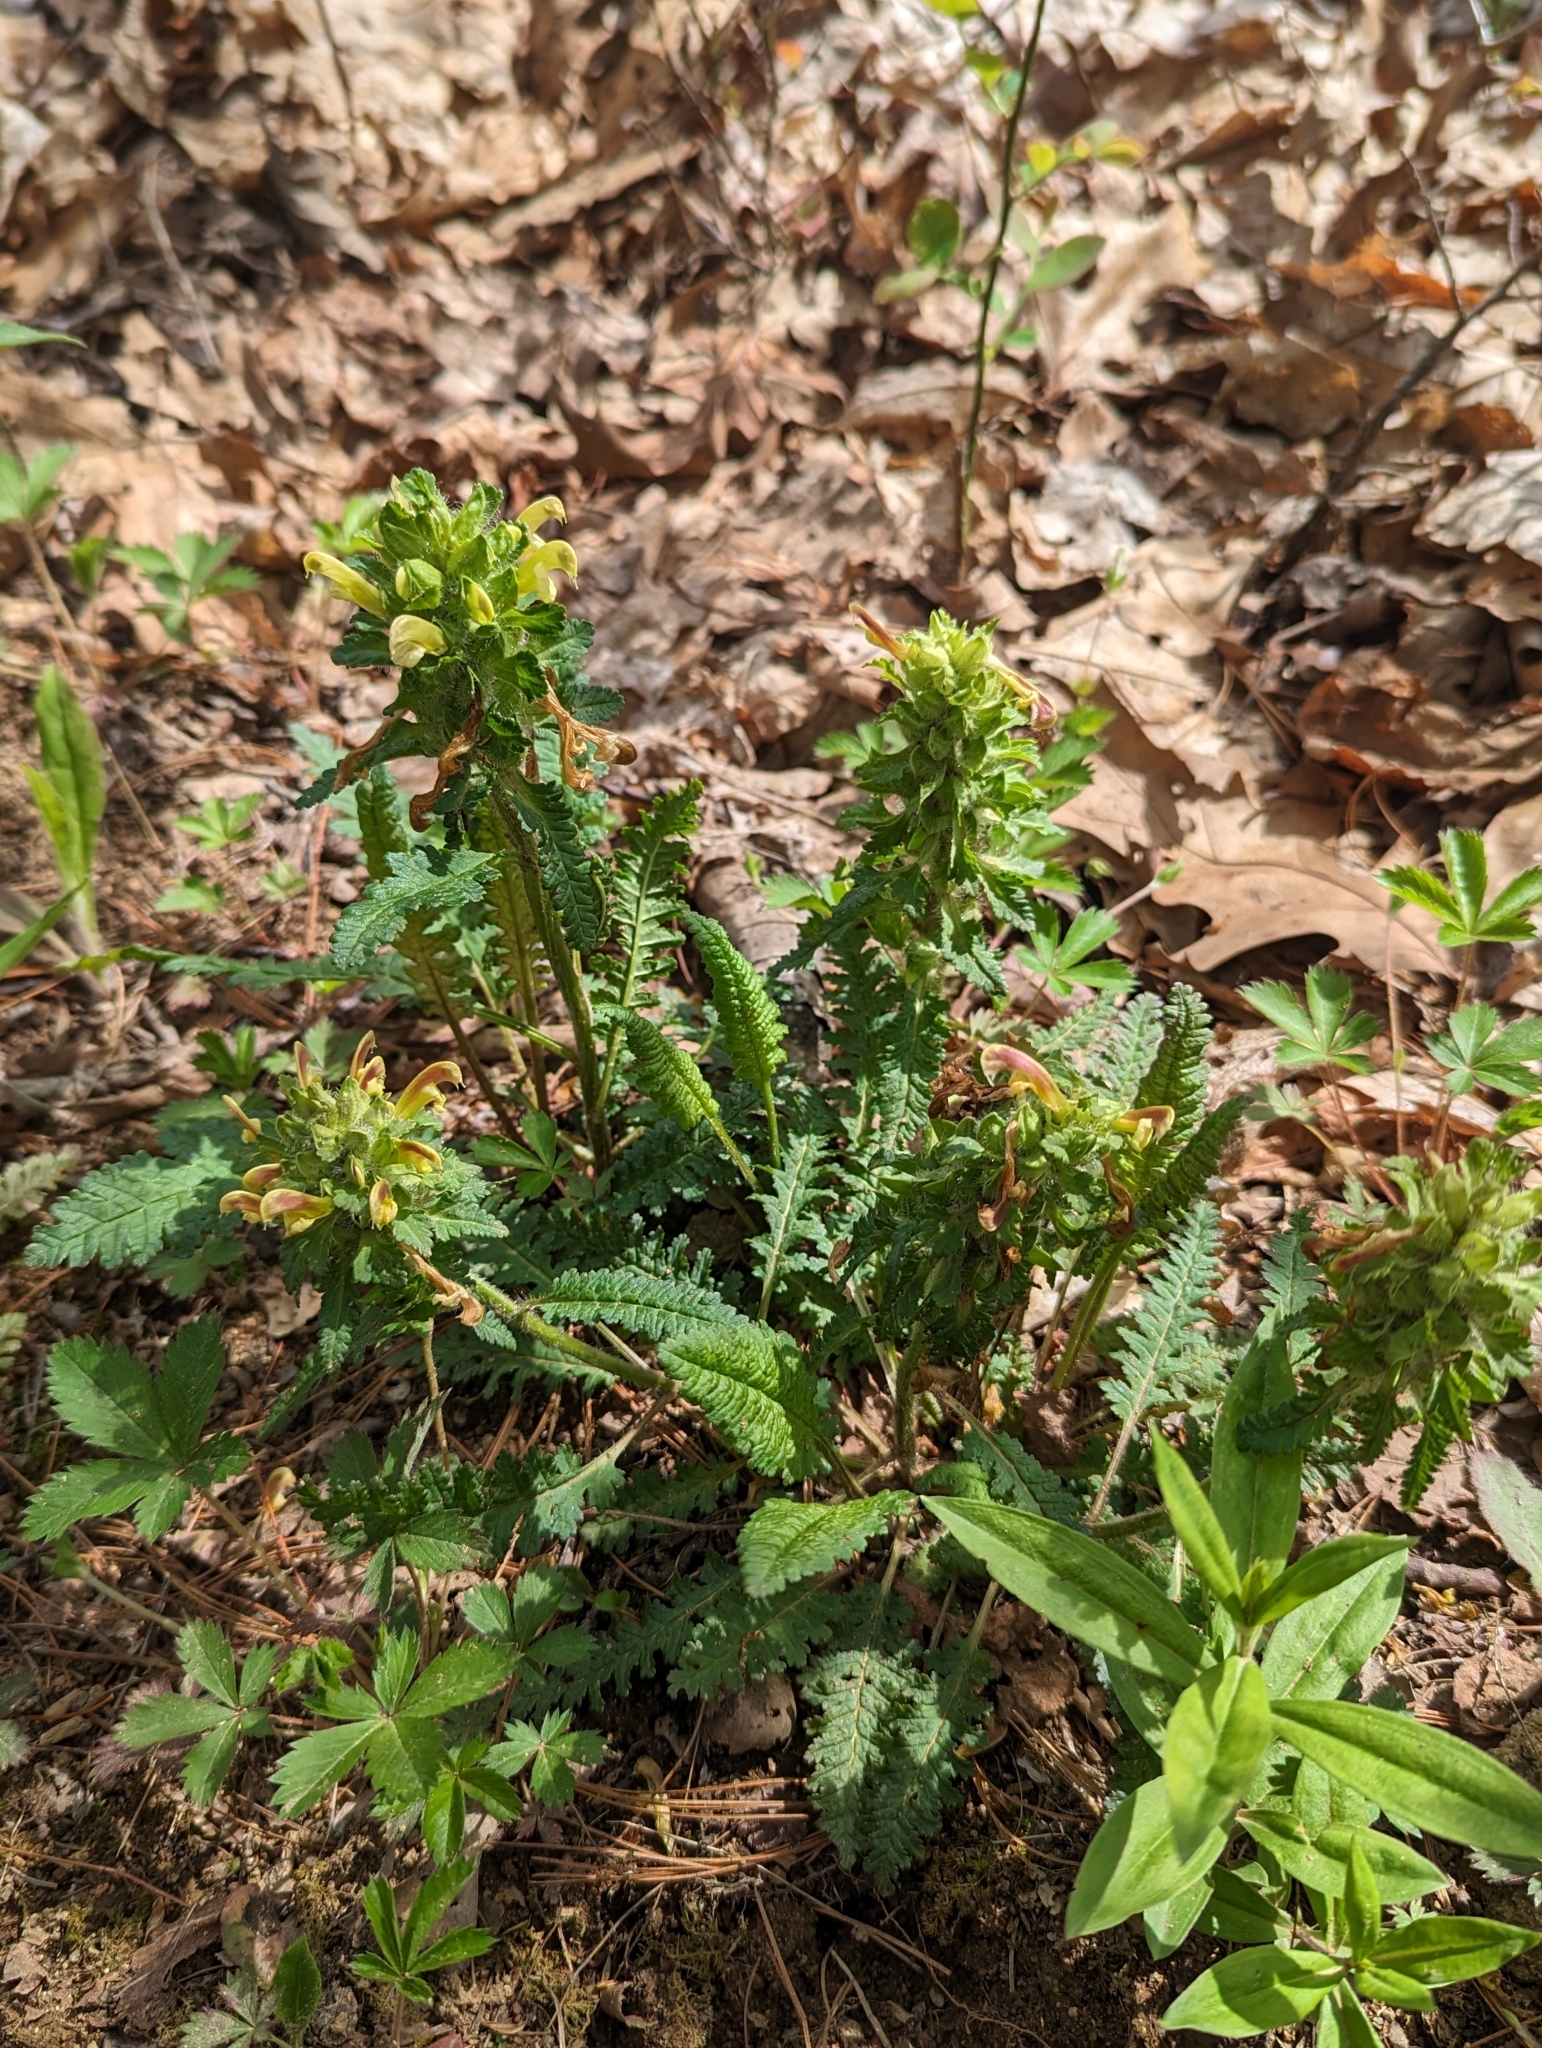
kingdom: Plantae
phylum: Tracheophyta
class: Magnoliopsida
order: Lamiales
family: Orobanchaceae
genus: Pedicularis
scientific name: Pedicularis canadensis
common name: Early lousewort
